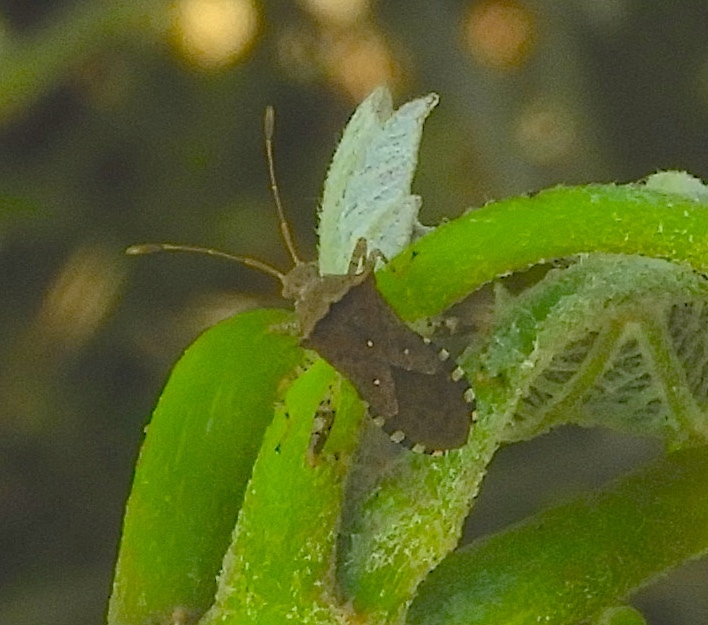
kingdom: Animalia
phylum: Arthropoda
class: Insecta
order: Hemiptera
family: Coreidae
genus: Zicca
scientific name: Zicca taeniola
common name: Leaf-footed bug
